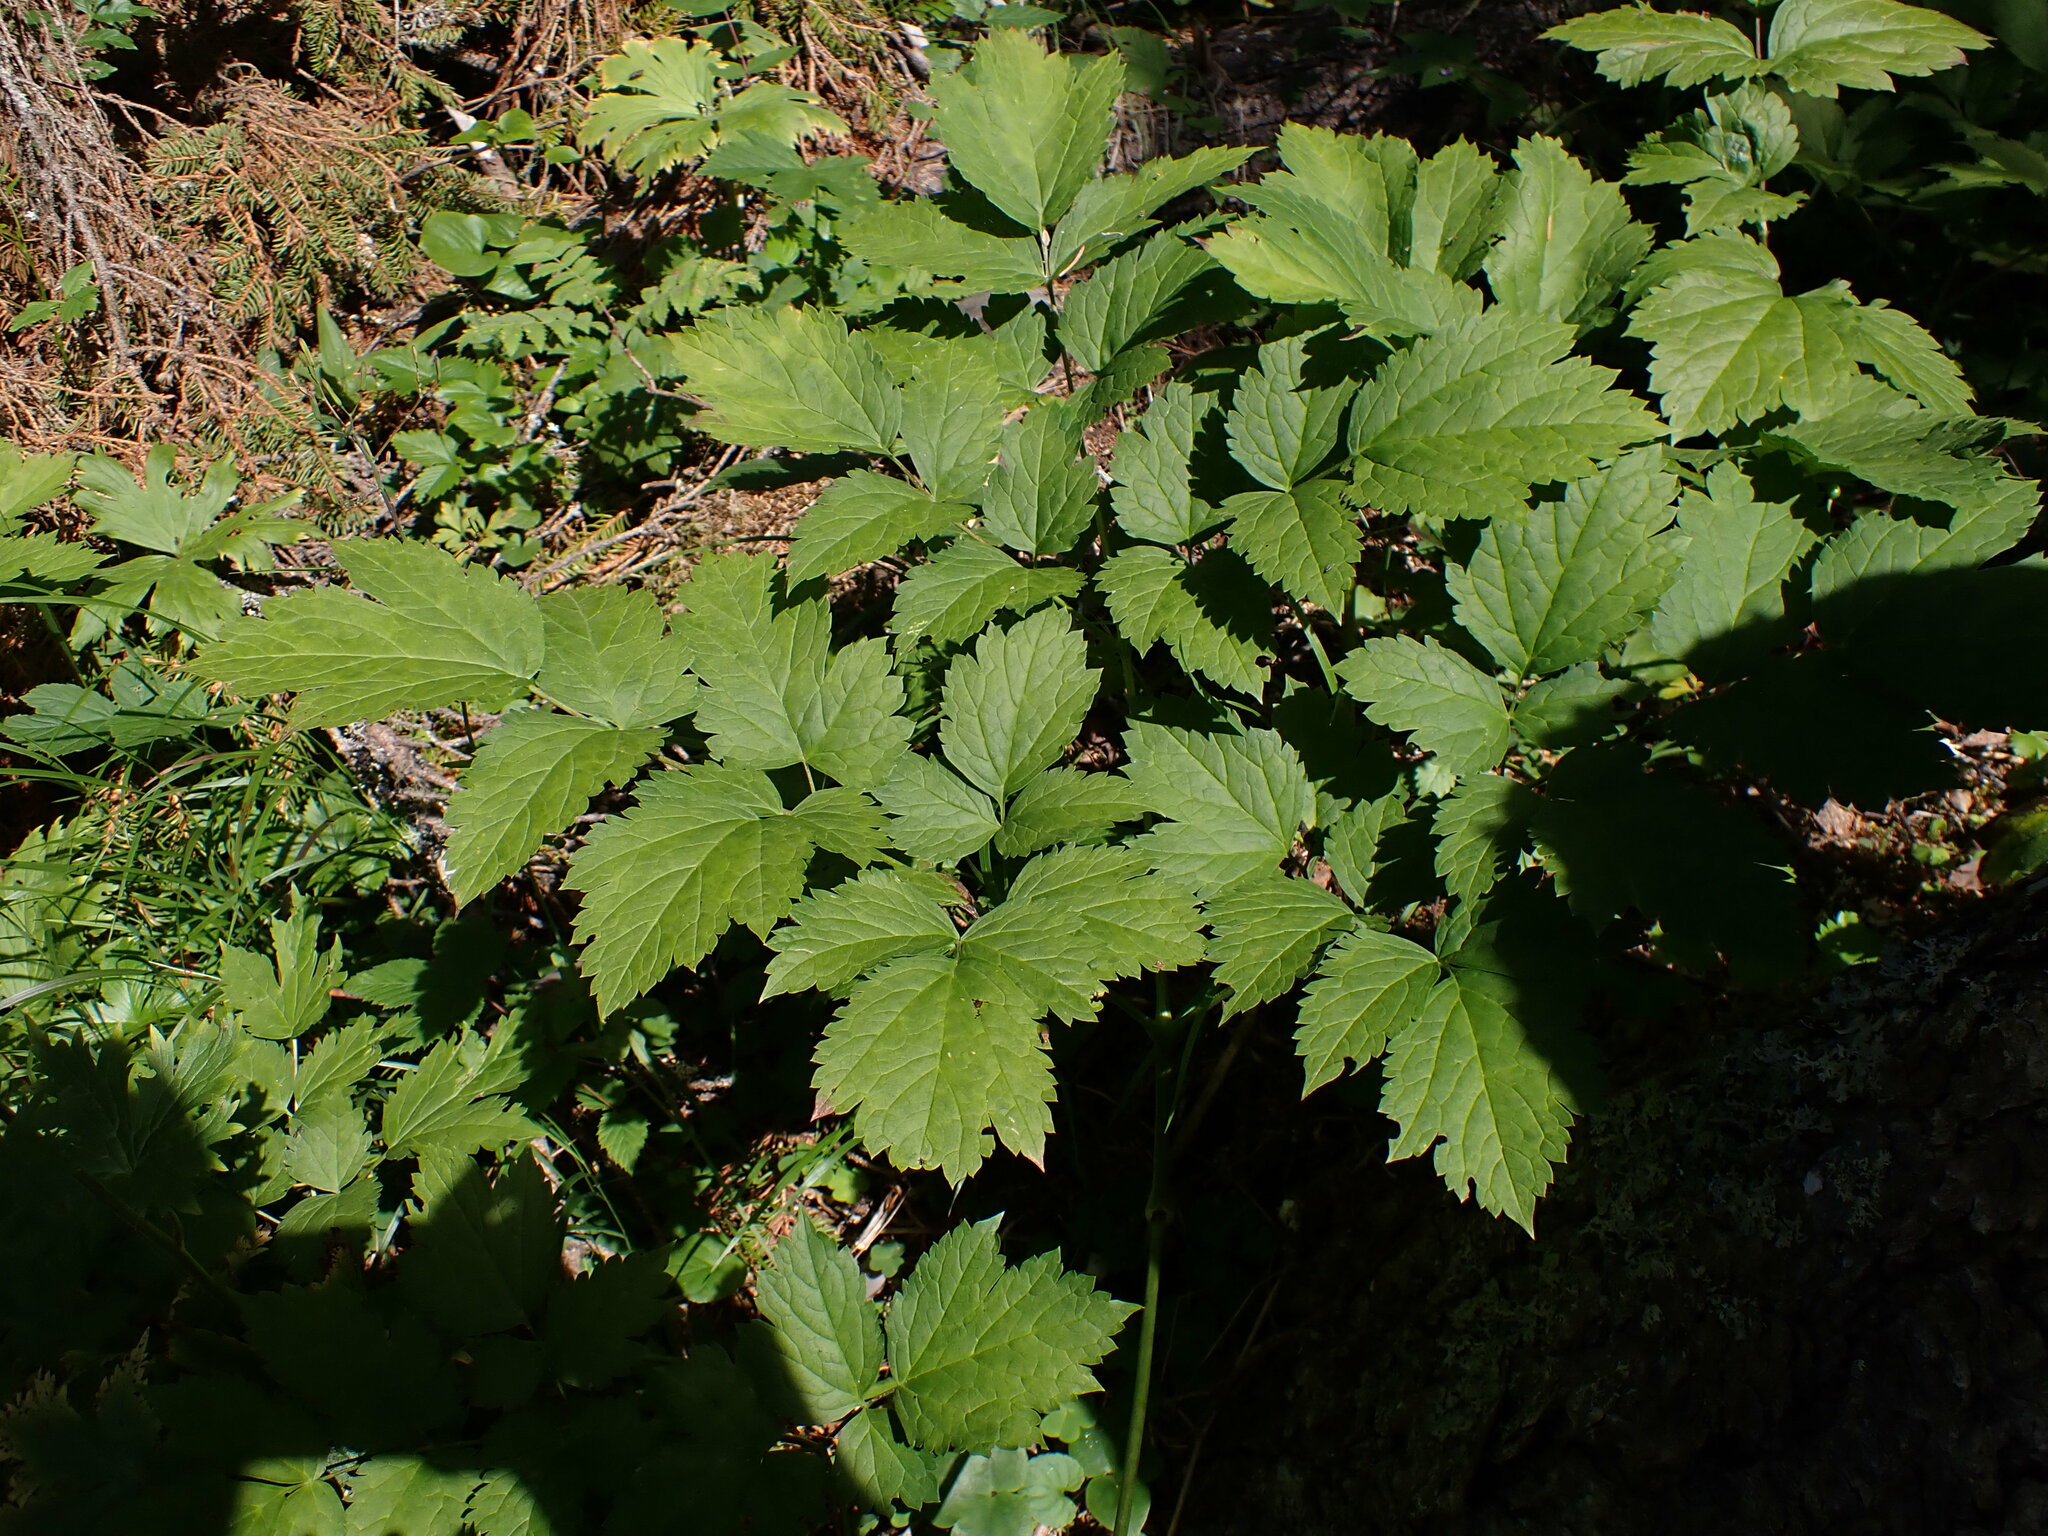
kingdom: Plantae
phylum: Tracheophyta
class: Magnoliopsida
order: Ranunculales
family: Ranunculaceae
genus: Actaea
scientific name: Actaea spicata
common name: Baneberry
